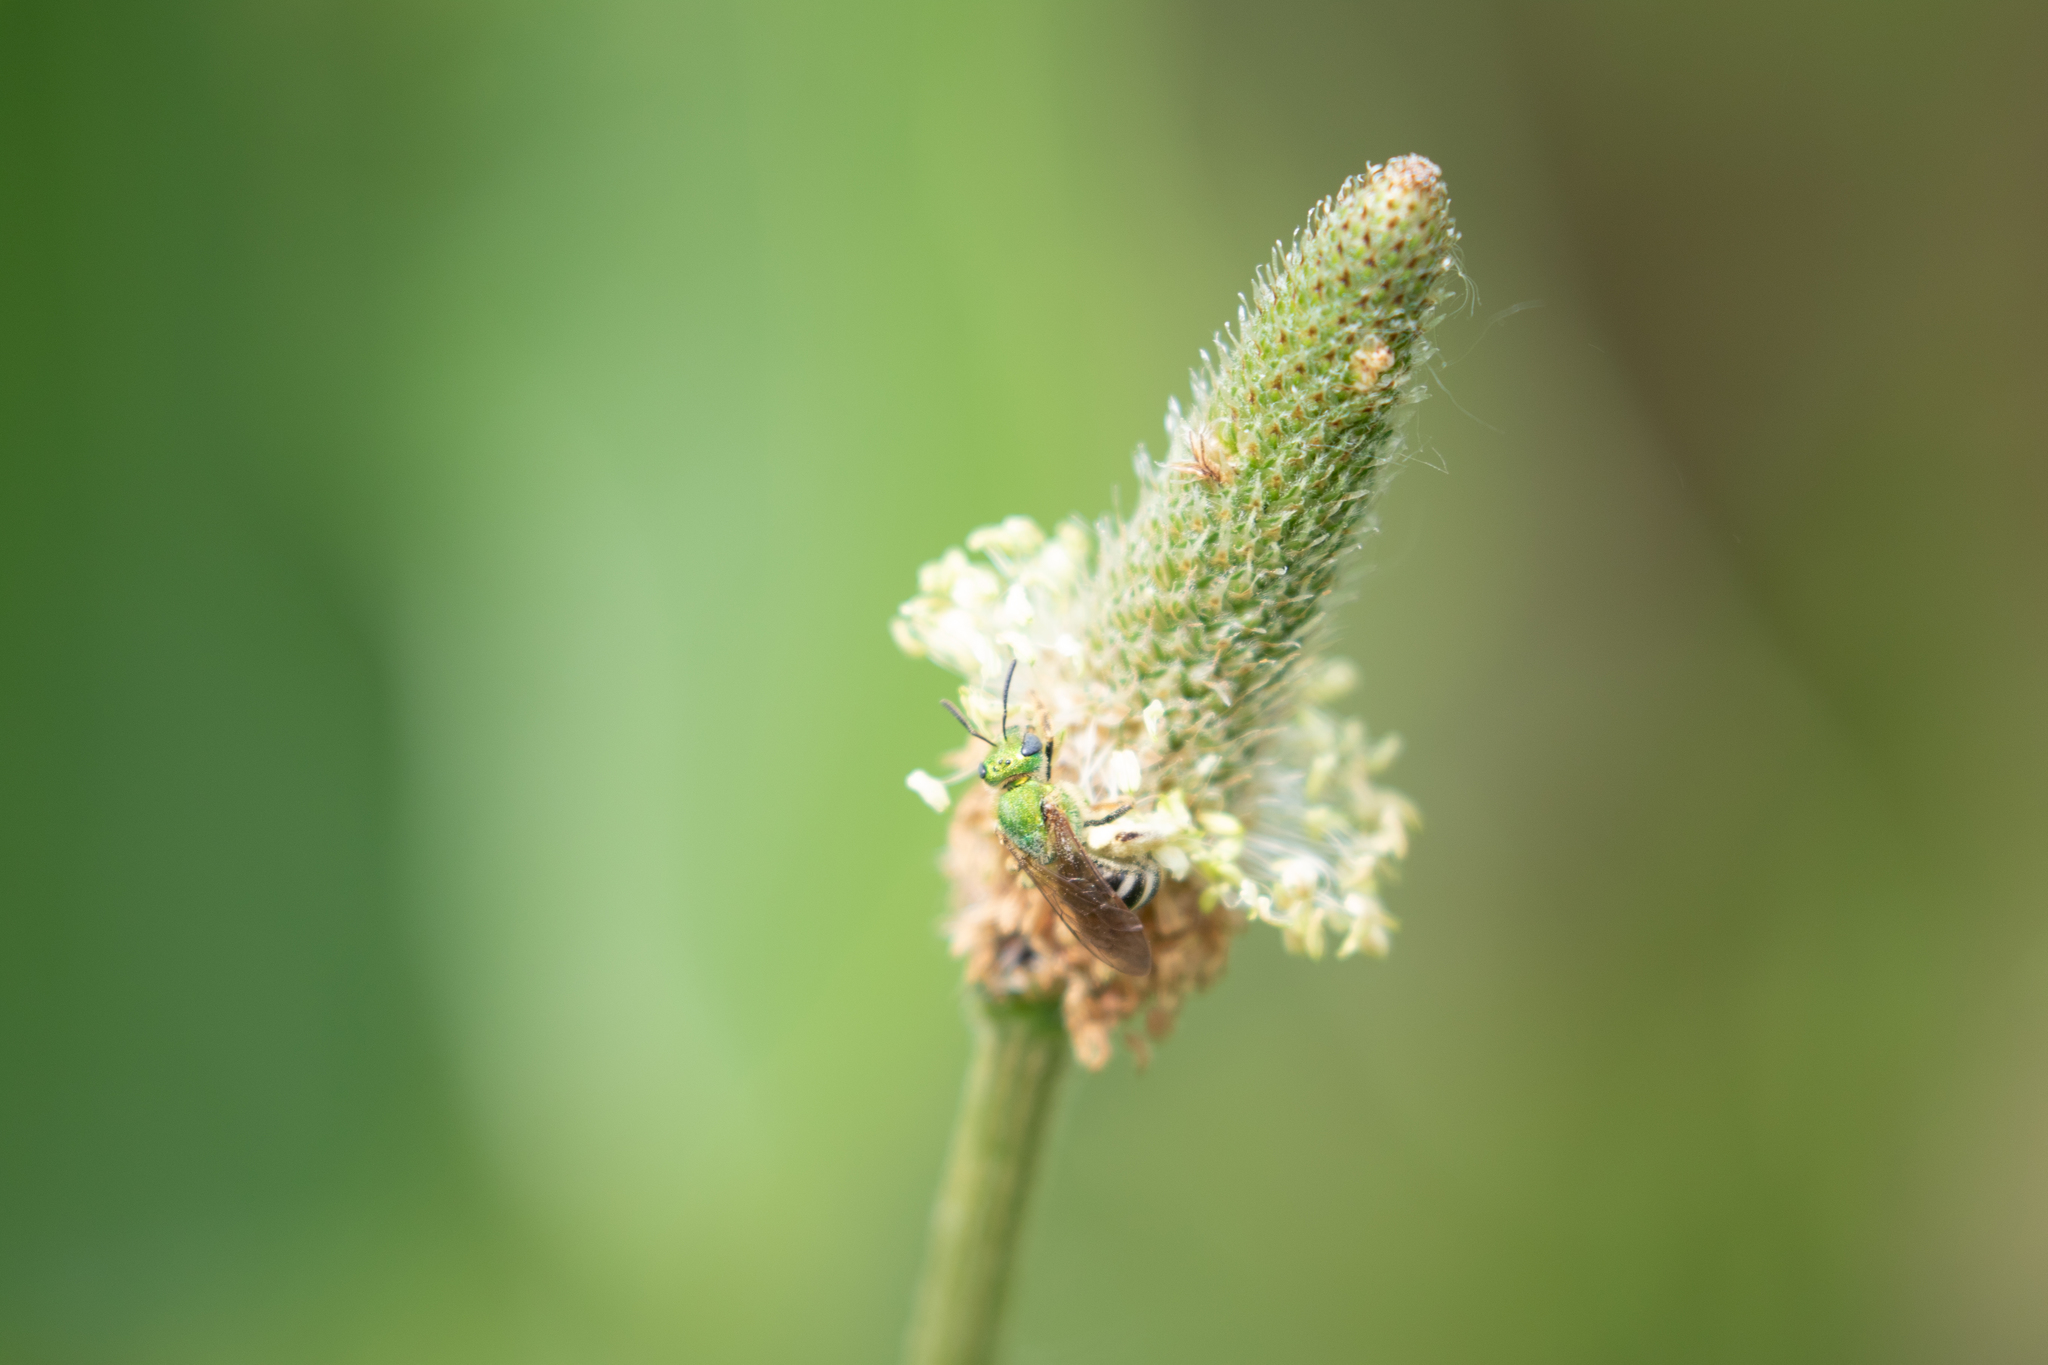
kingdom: Animalia
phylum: Arthropoda
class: Insecta
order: Hymenoptera
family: Halictidae
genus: Agapostemon
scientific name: Agapostemon virescens
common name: Bicolored striped sweat bee
